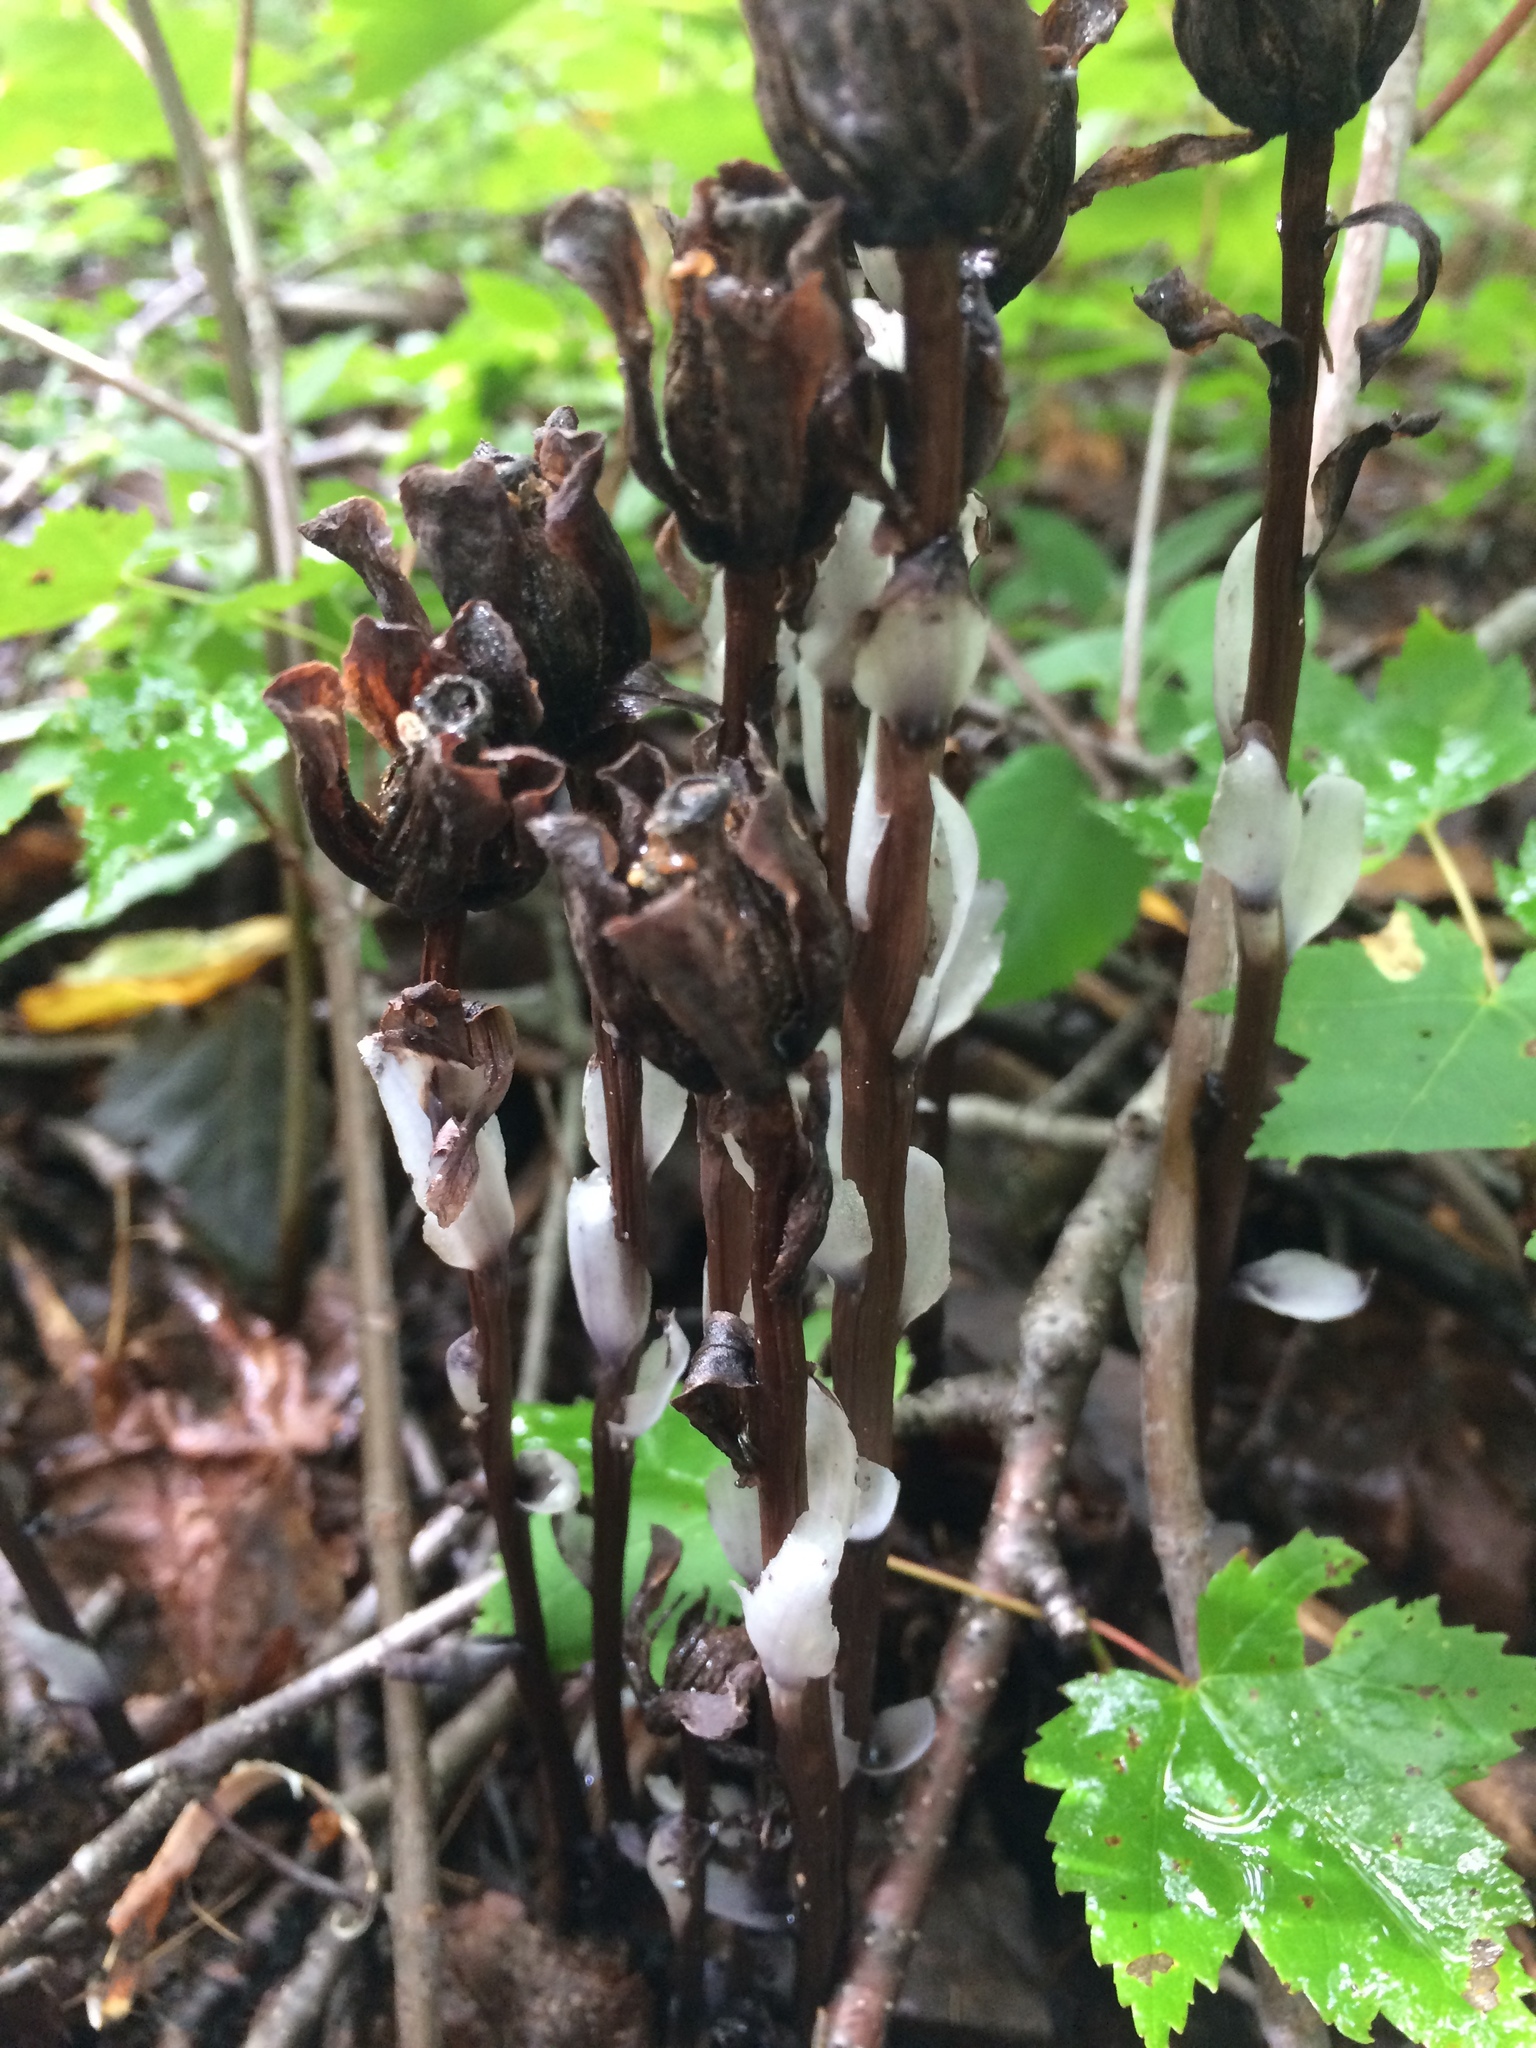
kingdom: Plantae
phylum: Tracheophyta
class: Magnoliopsida
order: Ericales
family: Ericaceae
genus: Monotropa
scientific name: Monotropa uniflora
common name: Convulsion root
